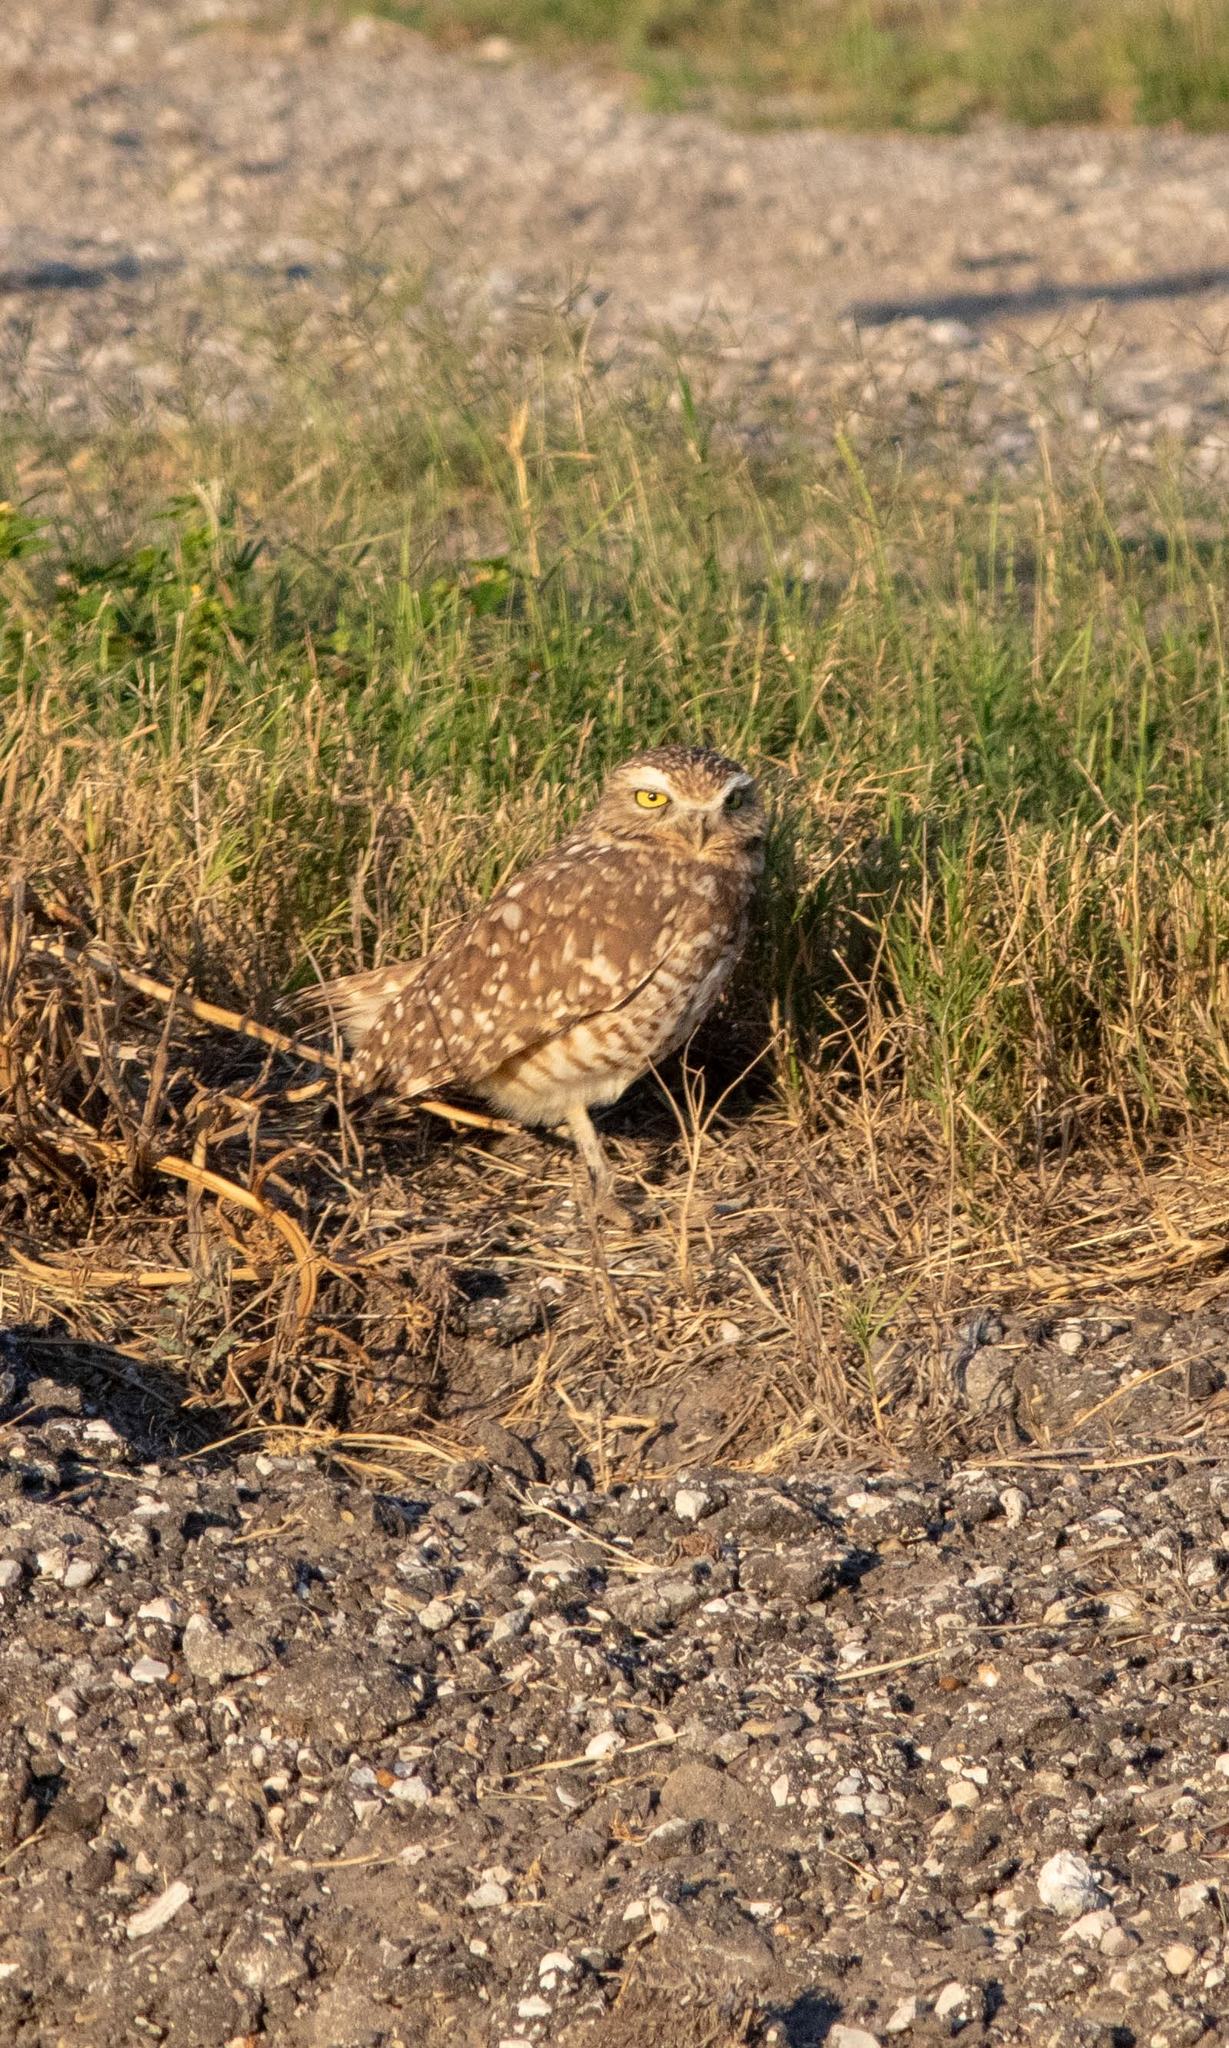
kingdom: Animalia
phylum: Chordata
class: Aves
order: Strigiformes
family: Strigidae
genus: Athene
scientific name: Athene cunicularia
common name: Burrowing owl
